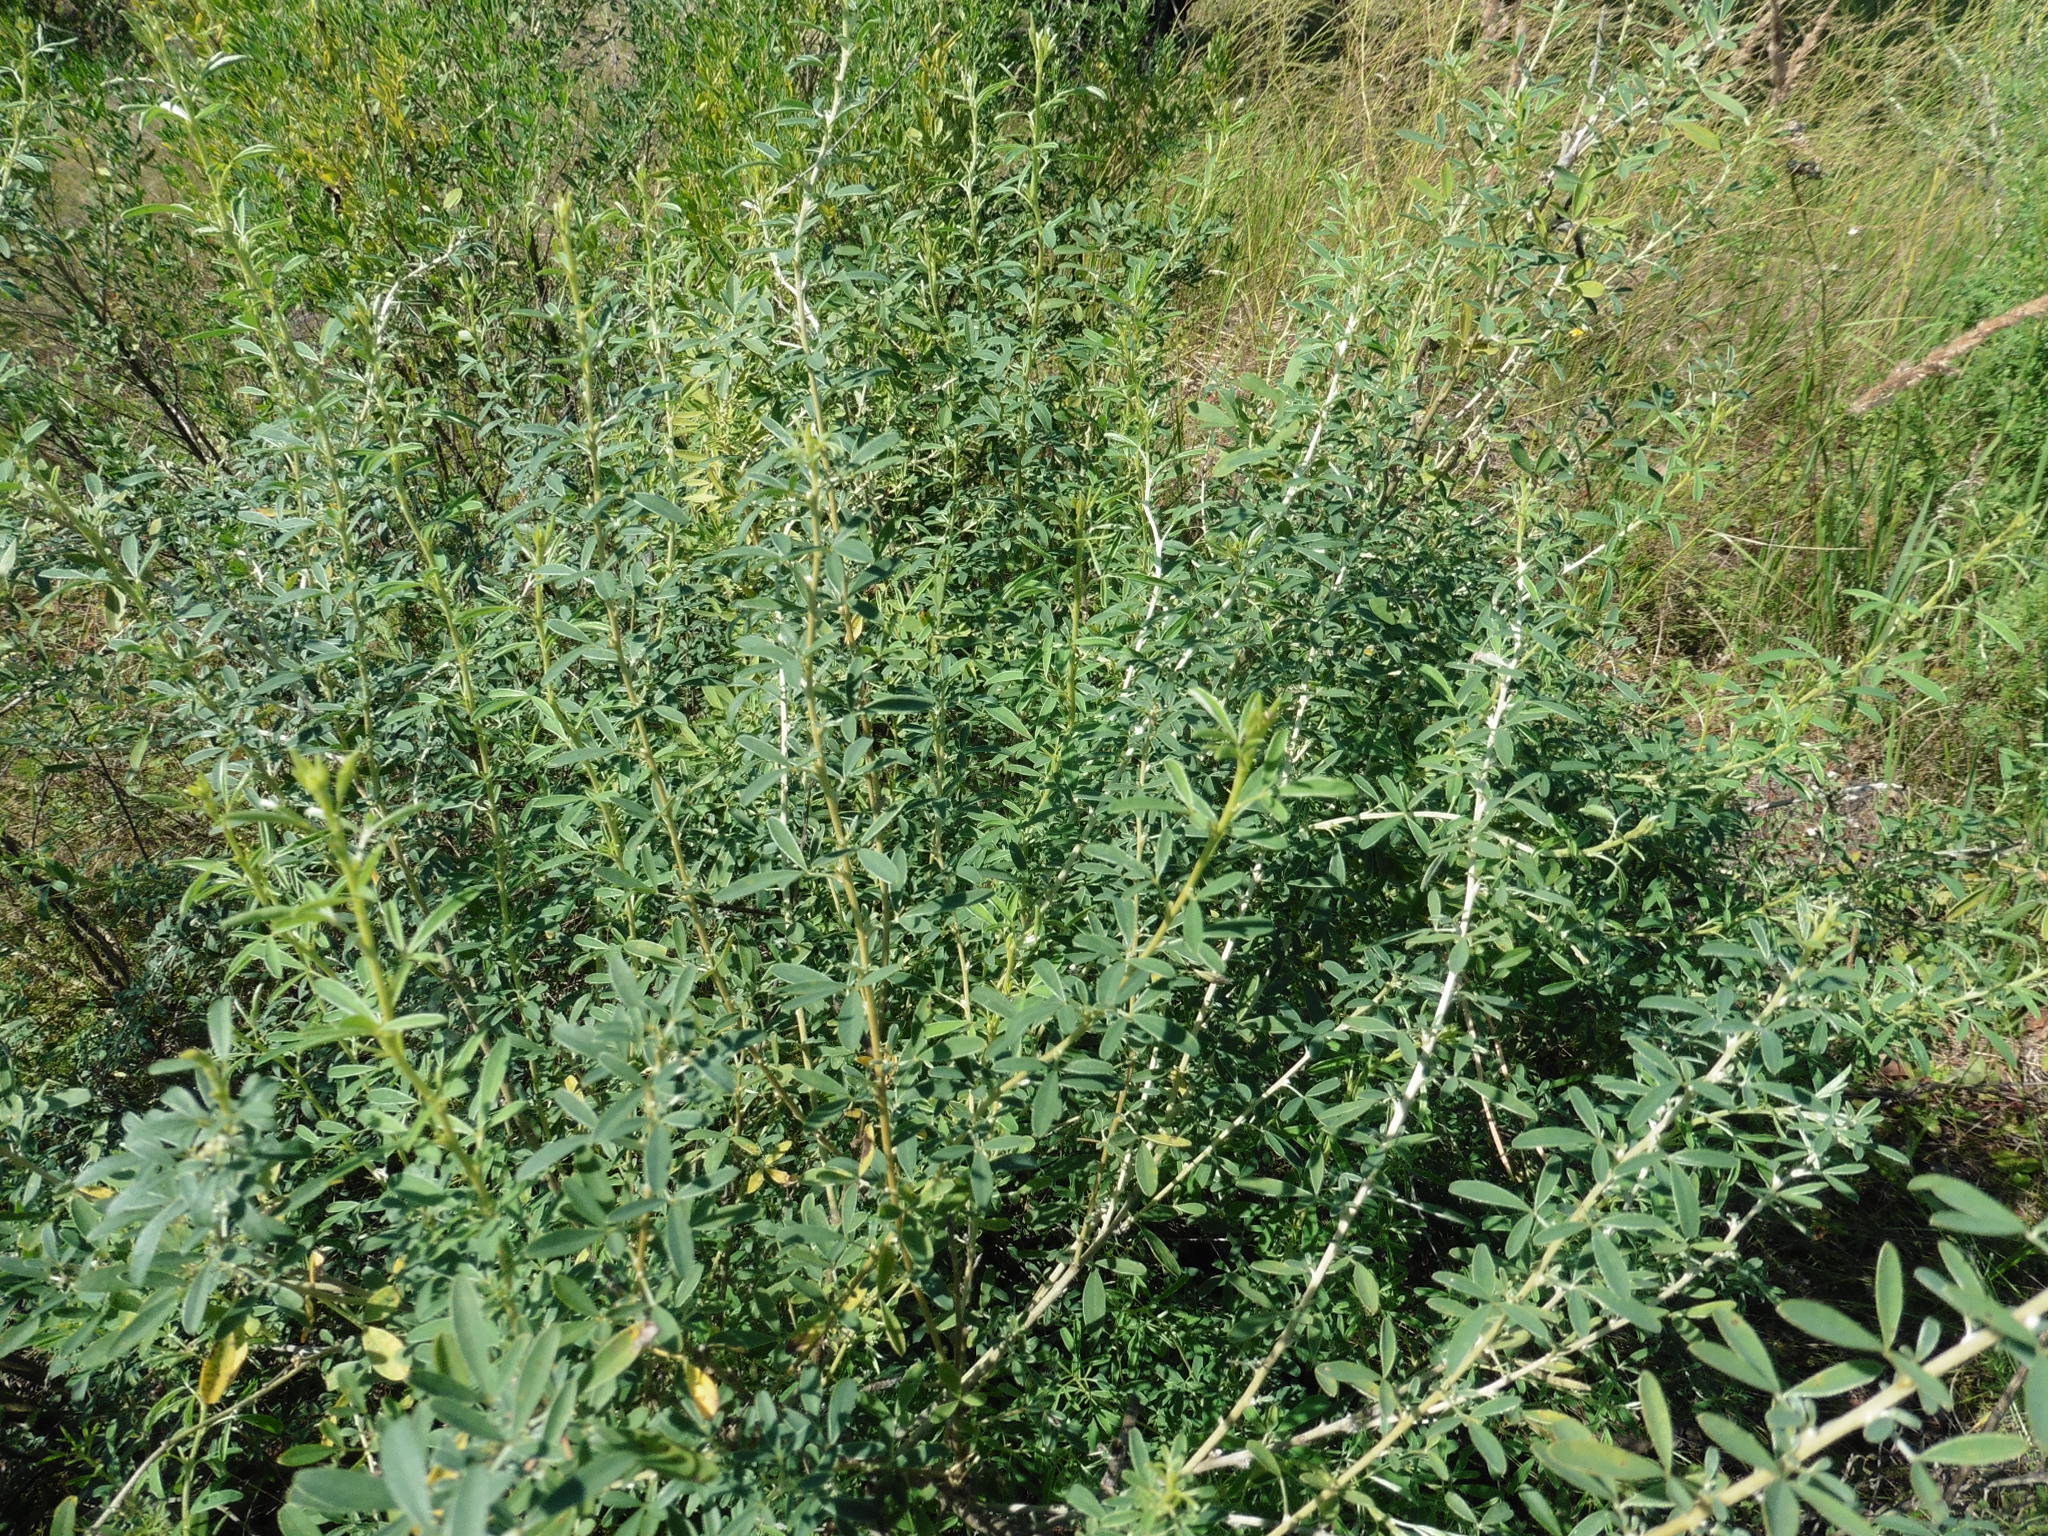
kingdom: Plantae
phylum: Tracheophyta
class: Magnoliopsida
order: Fabales
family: Fabaceae
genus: Chamaecytisus
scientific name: Chamaecytisus ruthenicus
